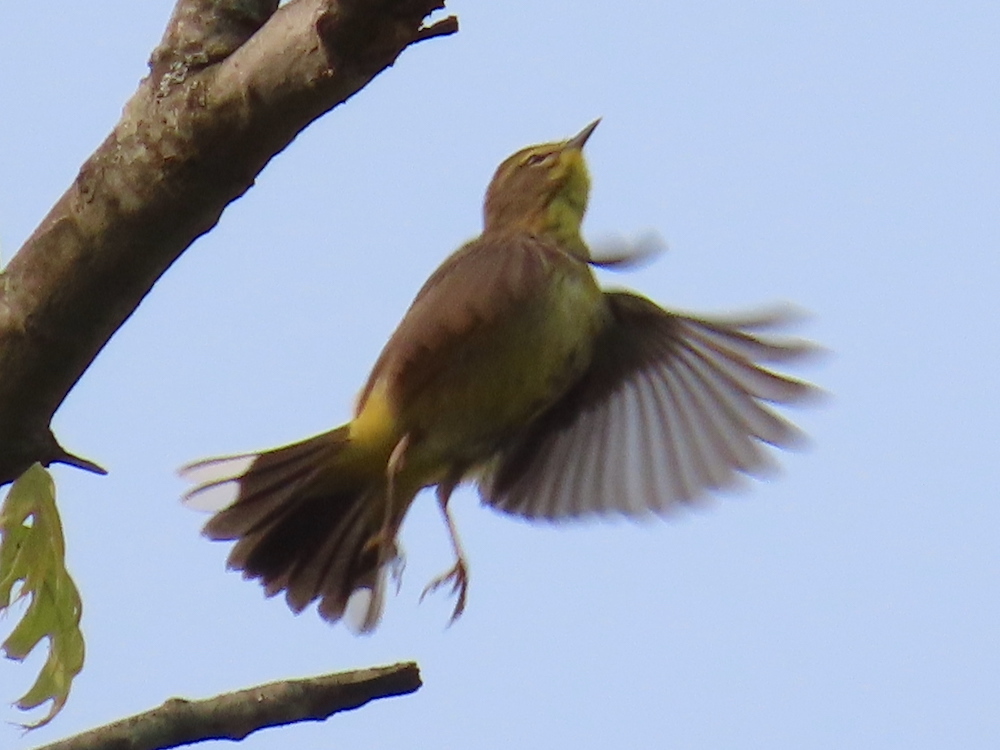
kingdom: Animalia
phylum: Chordata
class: Aves
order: Passeriformes
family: Parulidae
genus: Setophaga
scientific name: Setophaga palmarum
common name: Palm warbler
